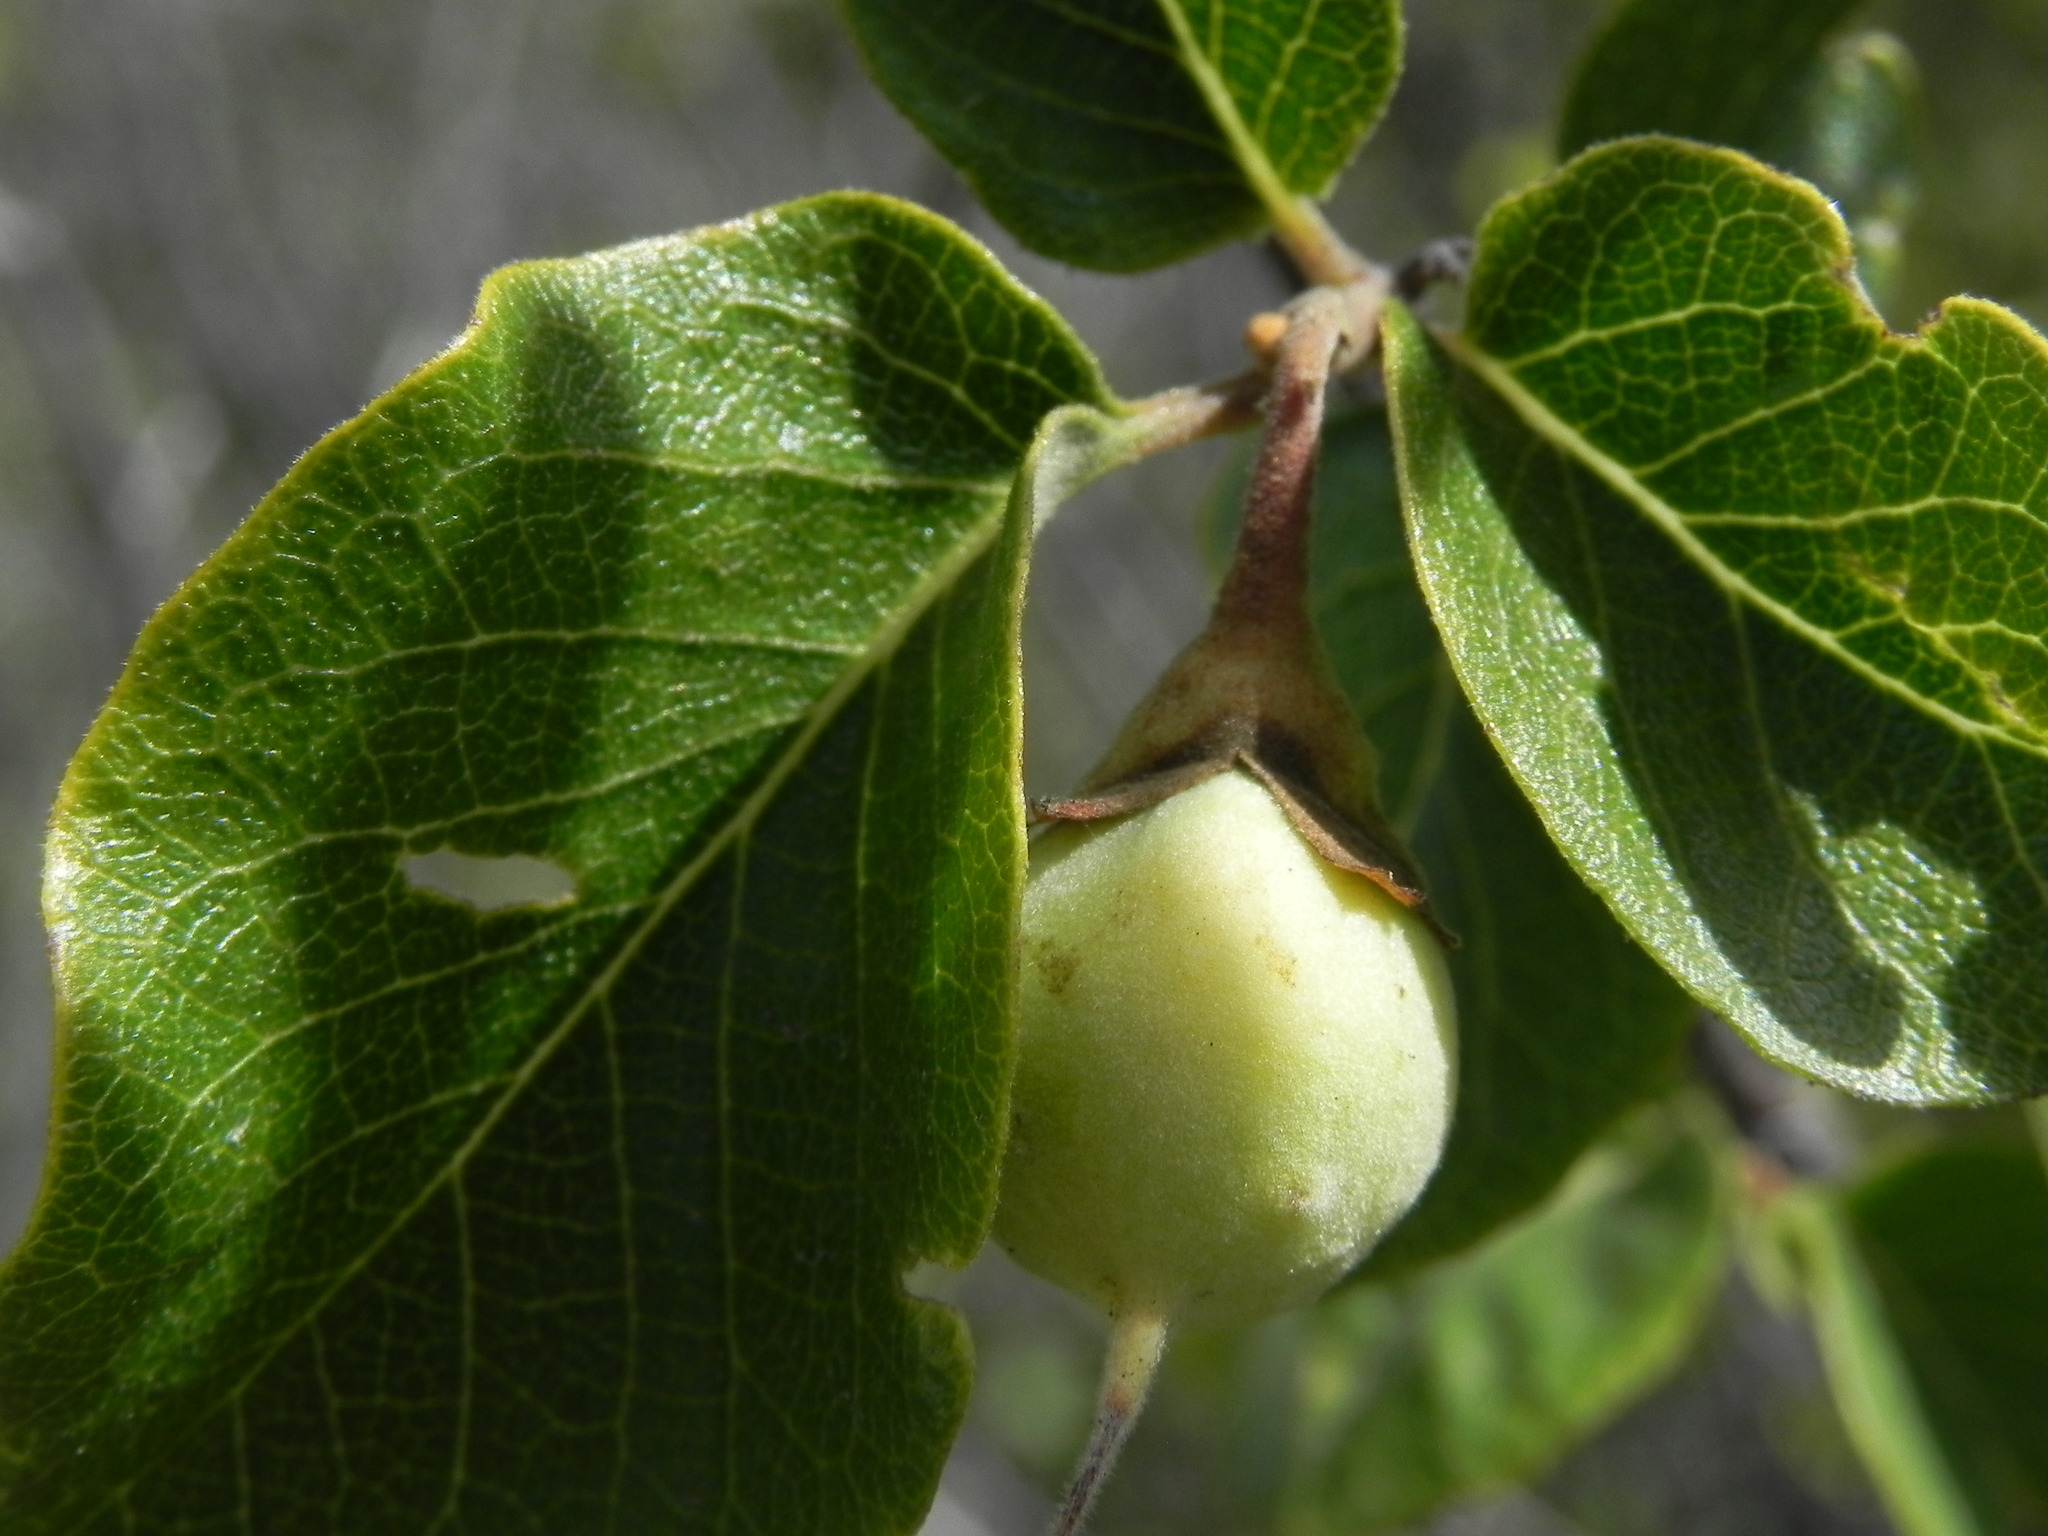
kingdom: Plantae
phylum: Tracheophyta
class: Magnoliopsida
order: Ericales
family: Styracaceae
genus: Styrax
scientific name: Styrax redivivus
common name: California styrax
